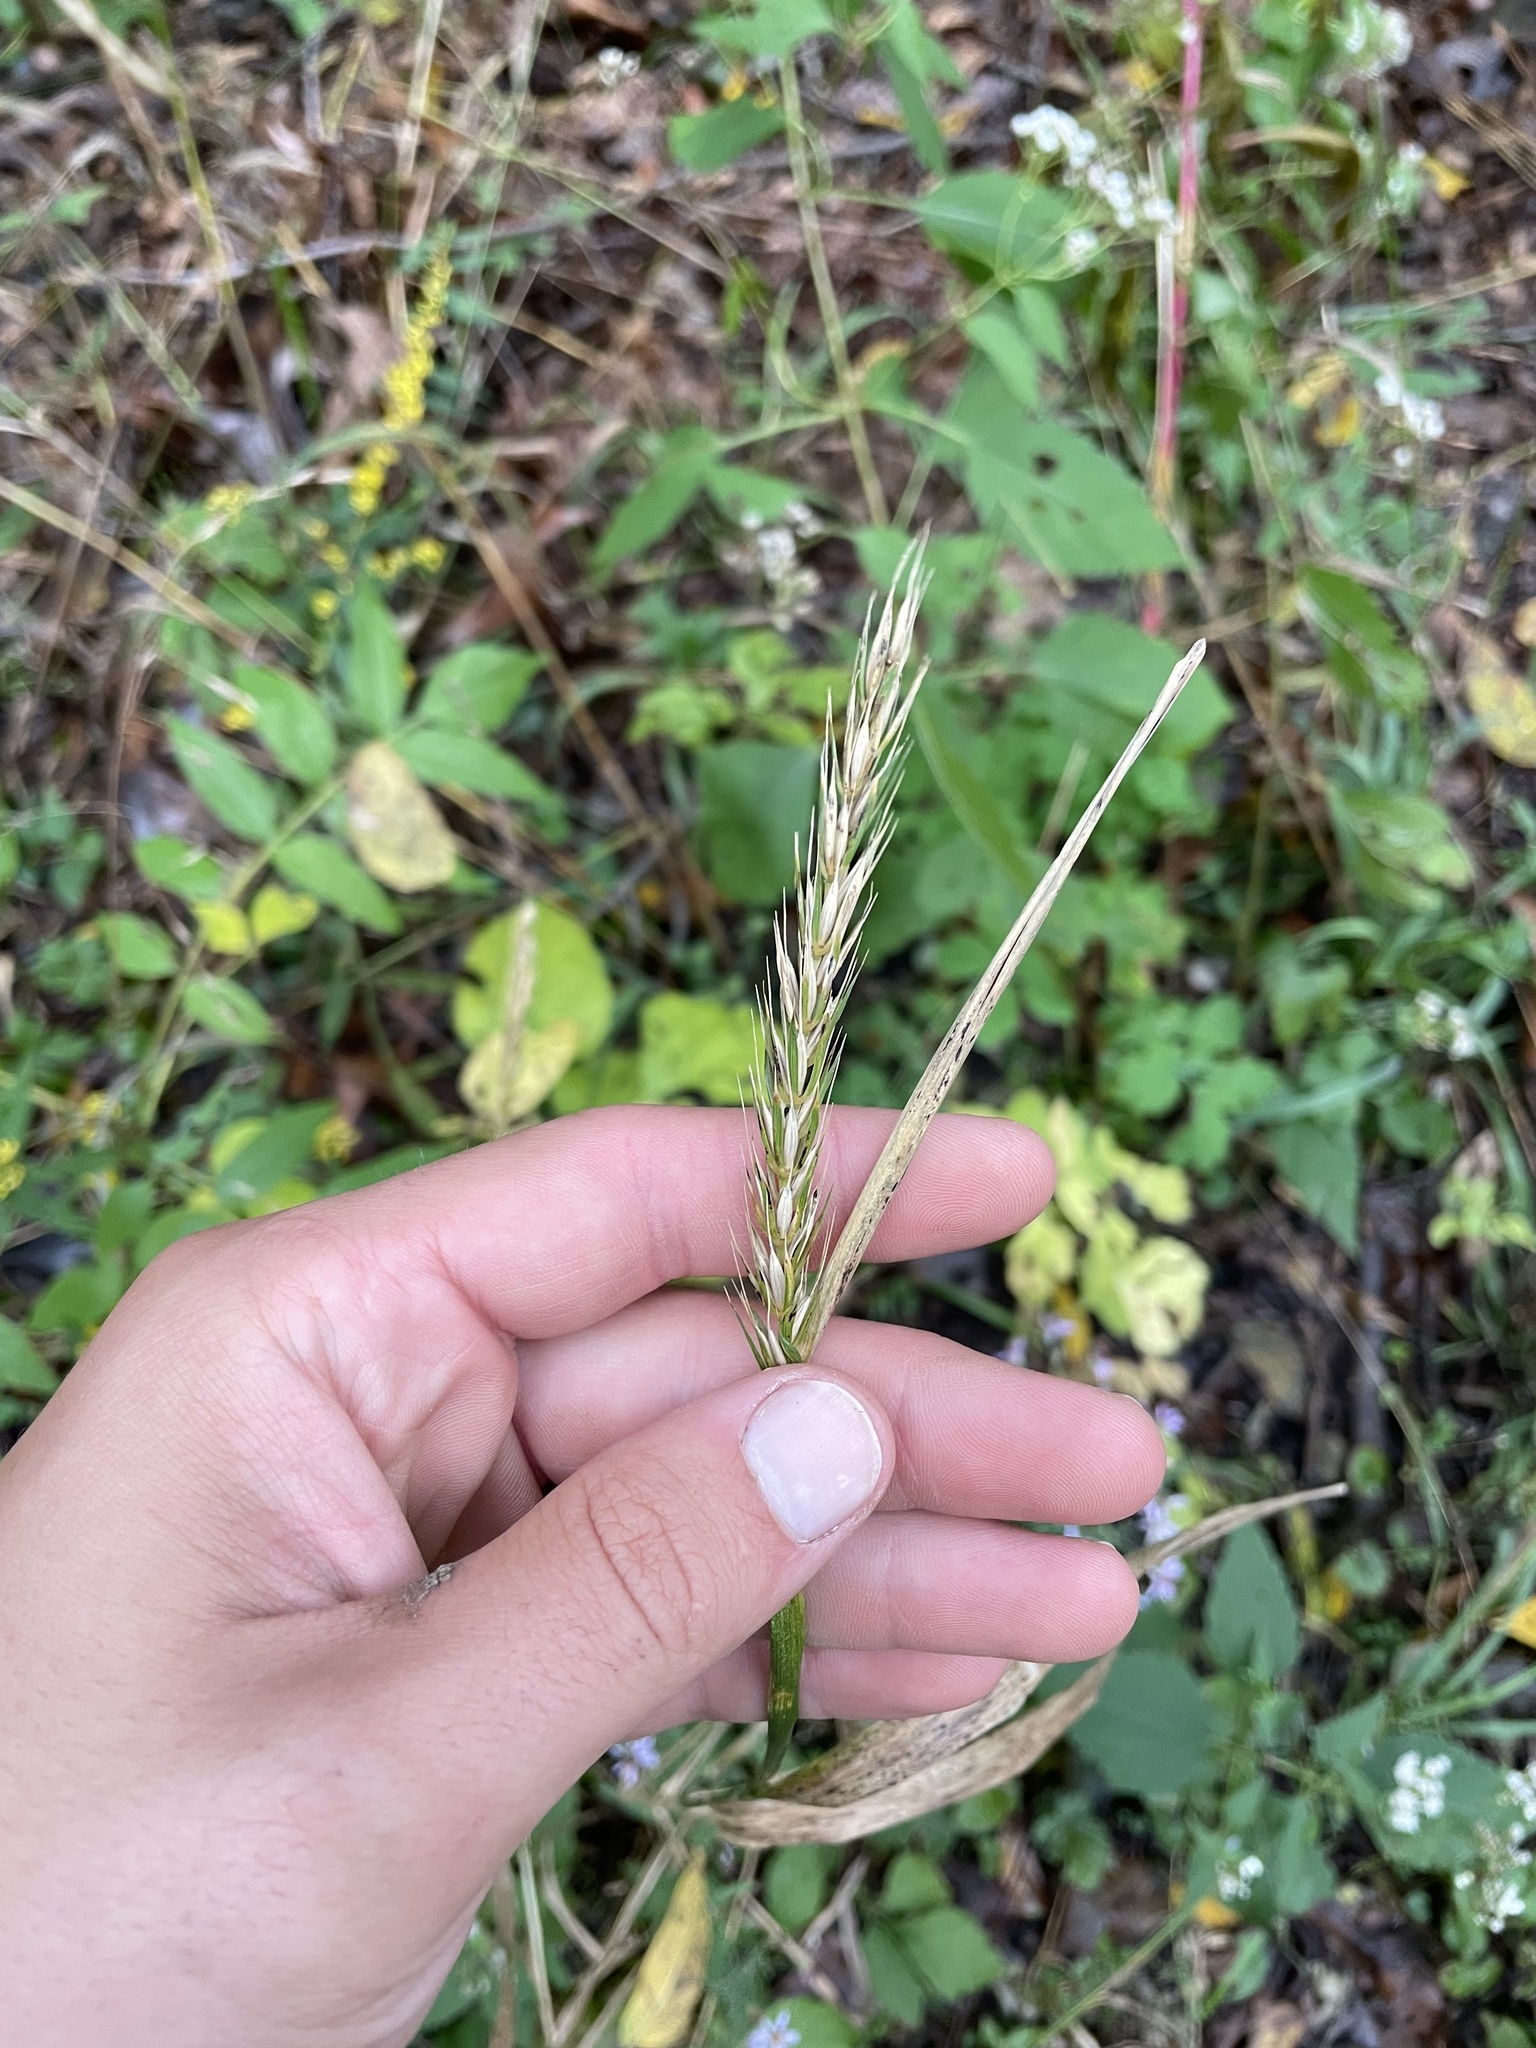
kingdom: Plantae
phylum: Tracheophyta
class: Liliopsida
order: Poales
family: Poaceae
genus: Elymus
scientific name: Elymus virginicus
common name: Common eastern wildrye
